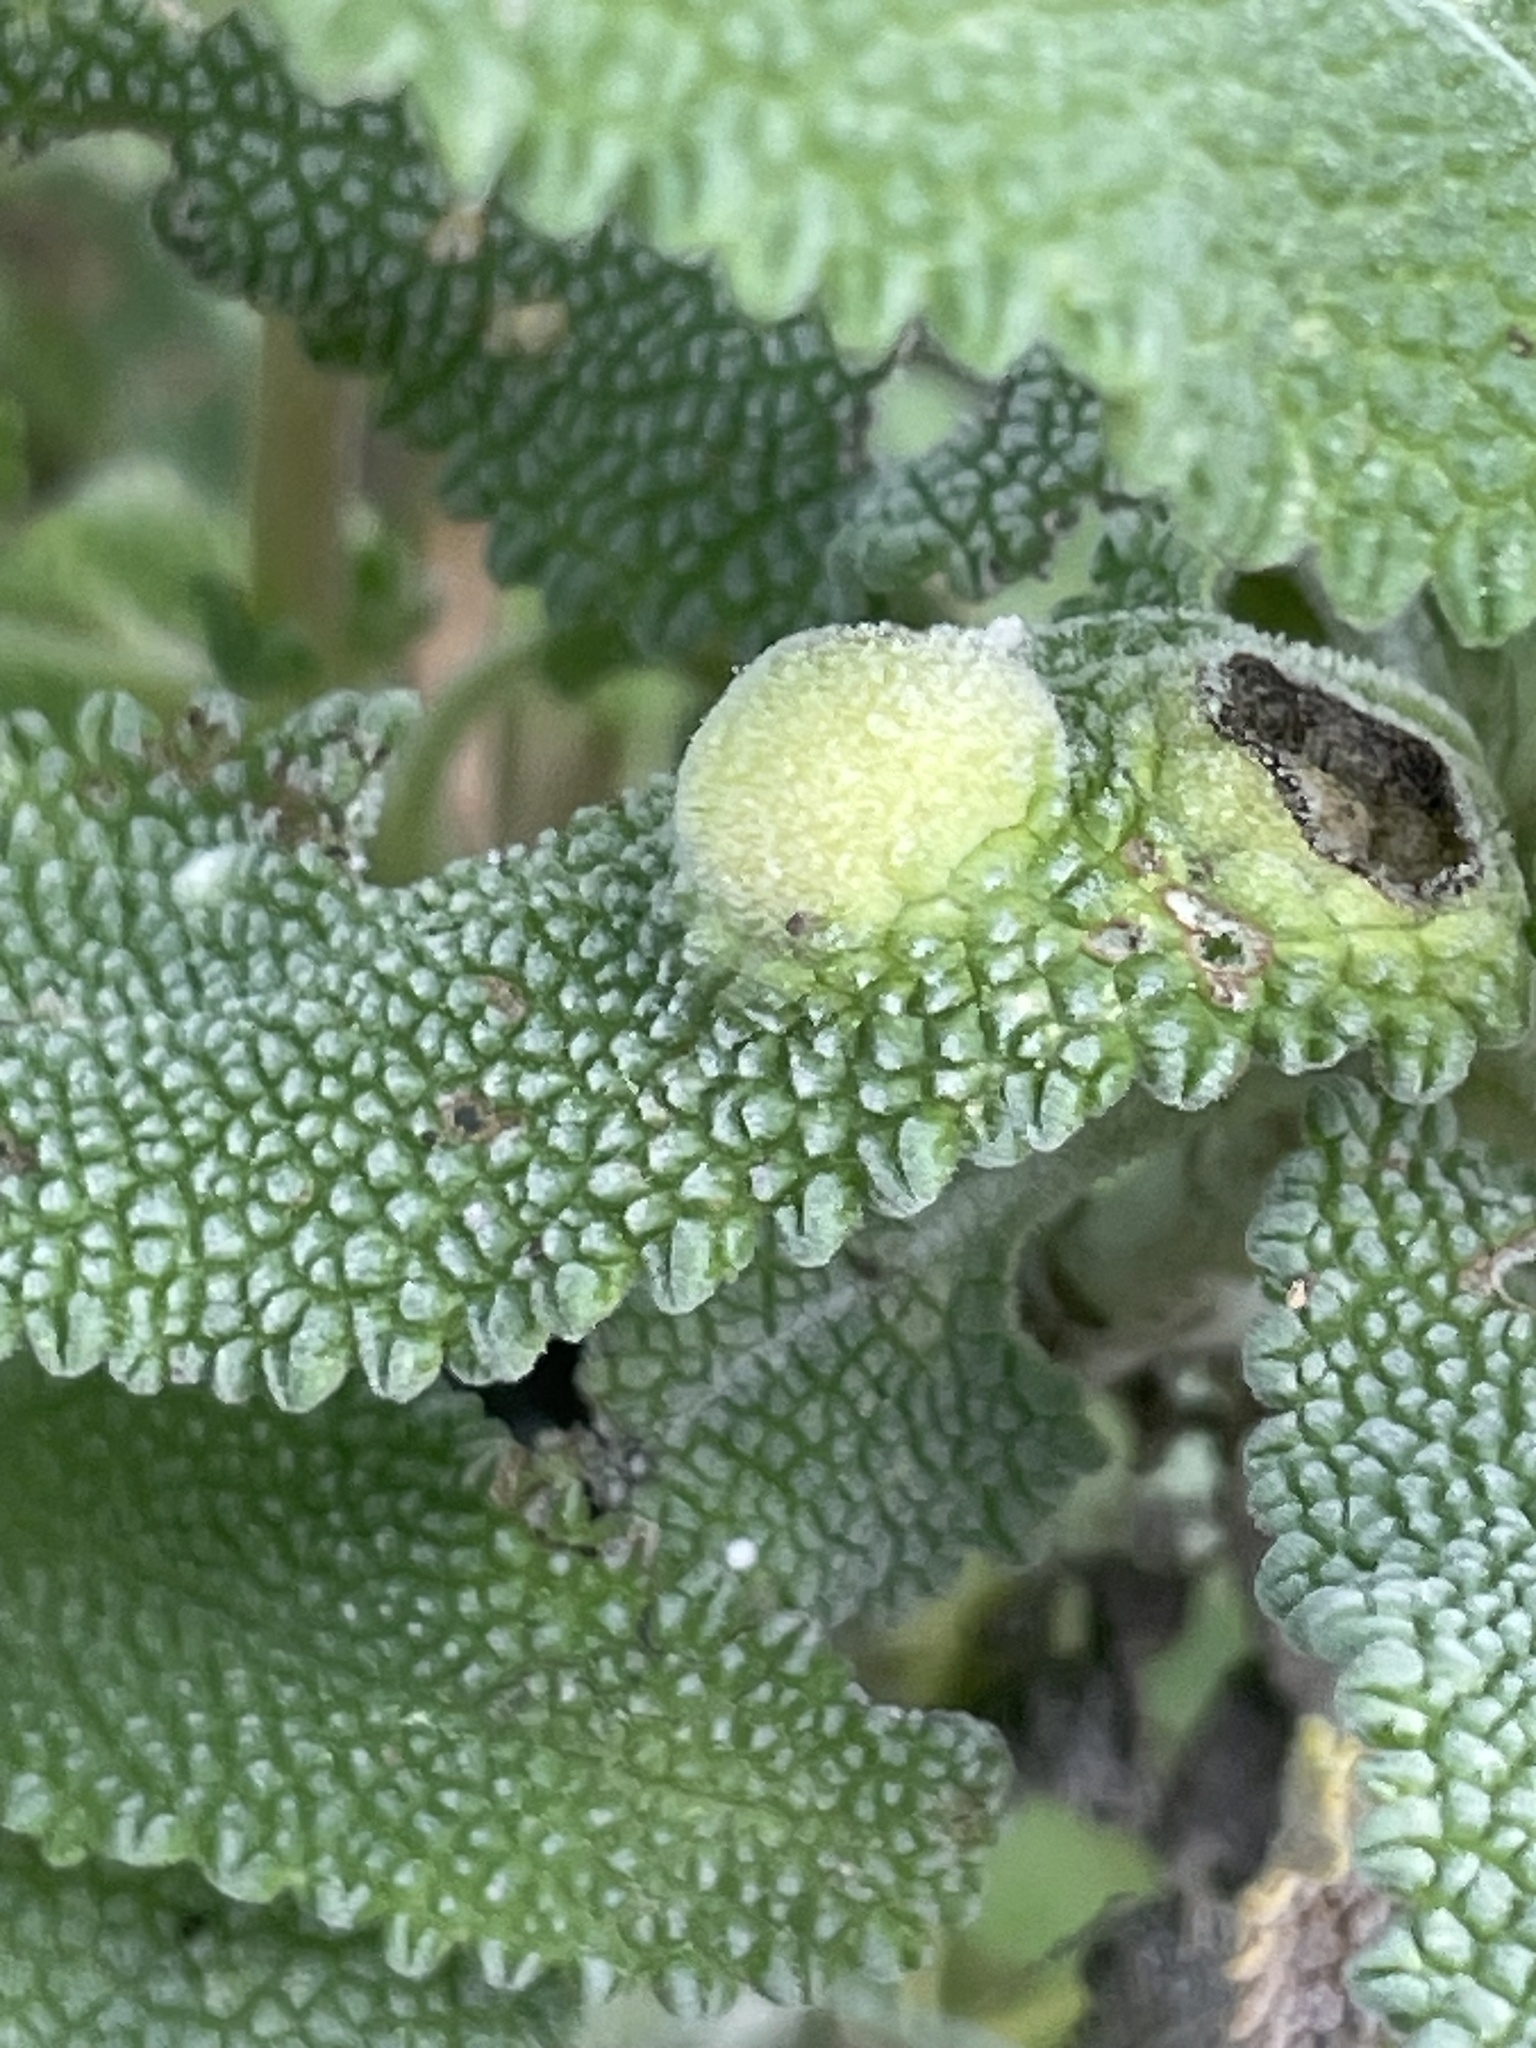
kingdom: Animalia
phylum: Arthropoda
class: Insecta
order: Diptera
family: Cecidomyiidae
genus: Rhopalomyia
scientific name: Rhopalomyia audibertiae
